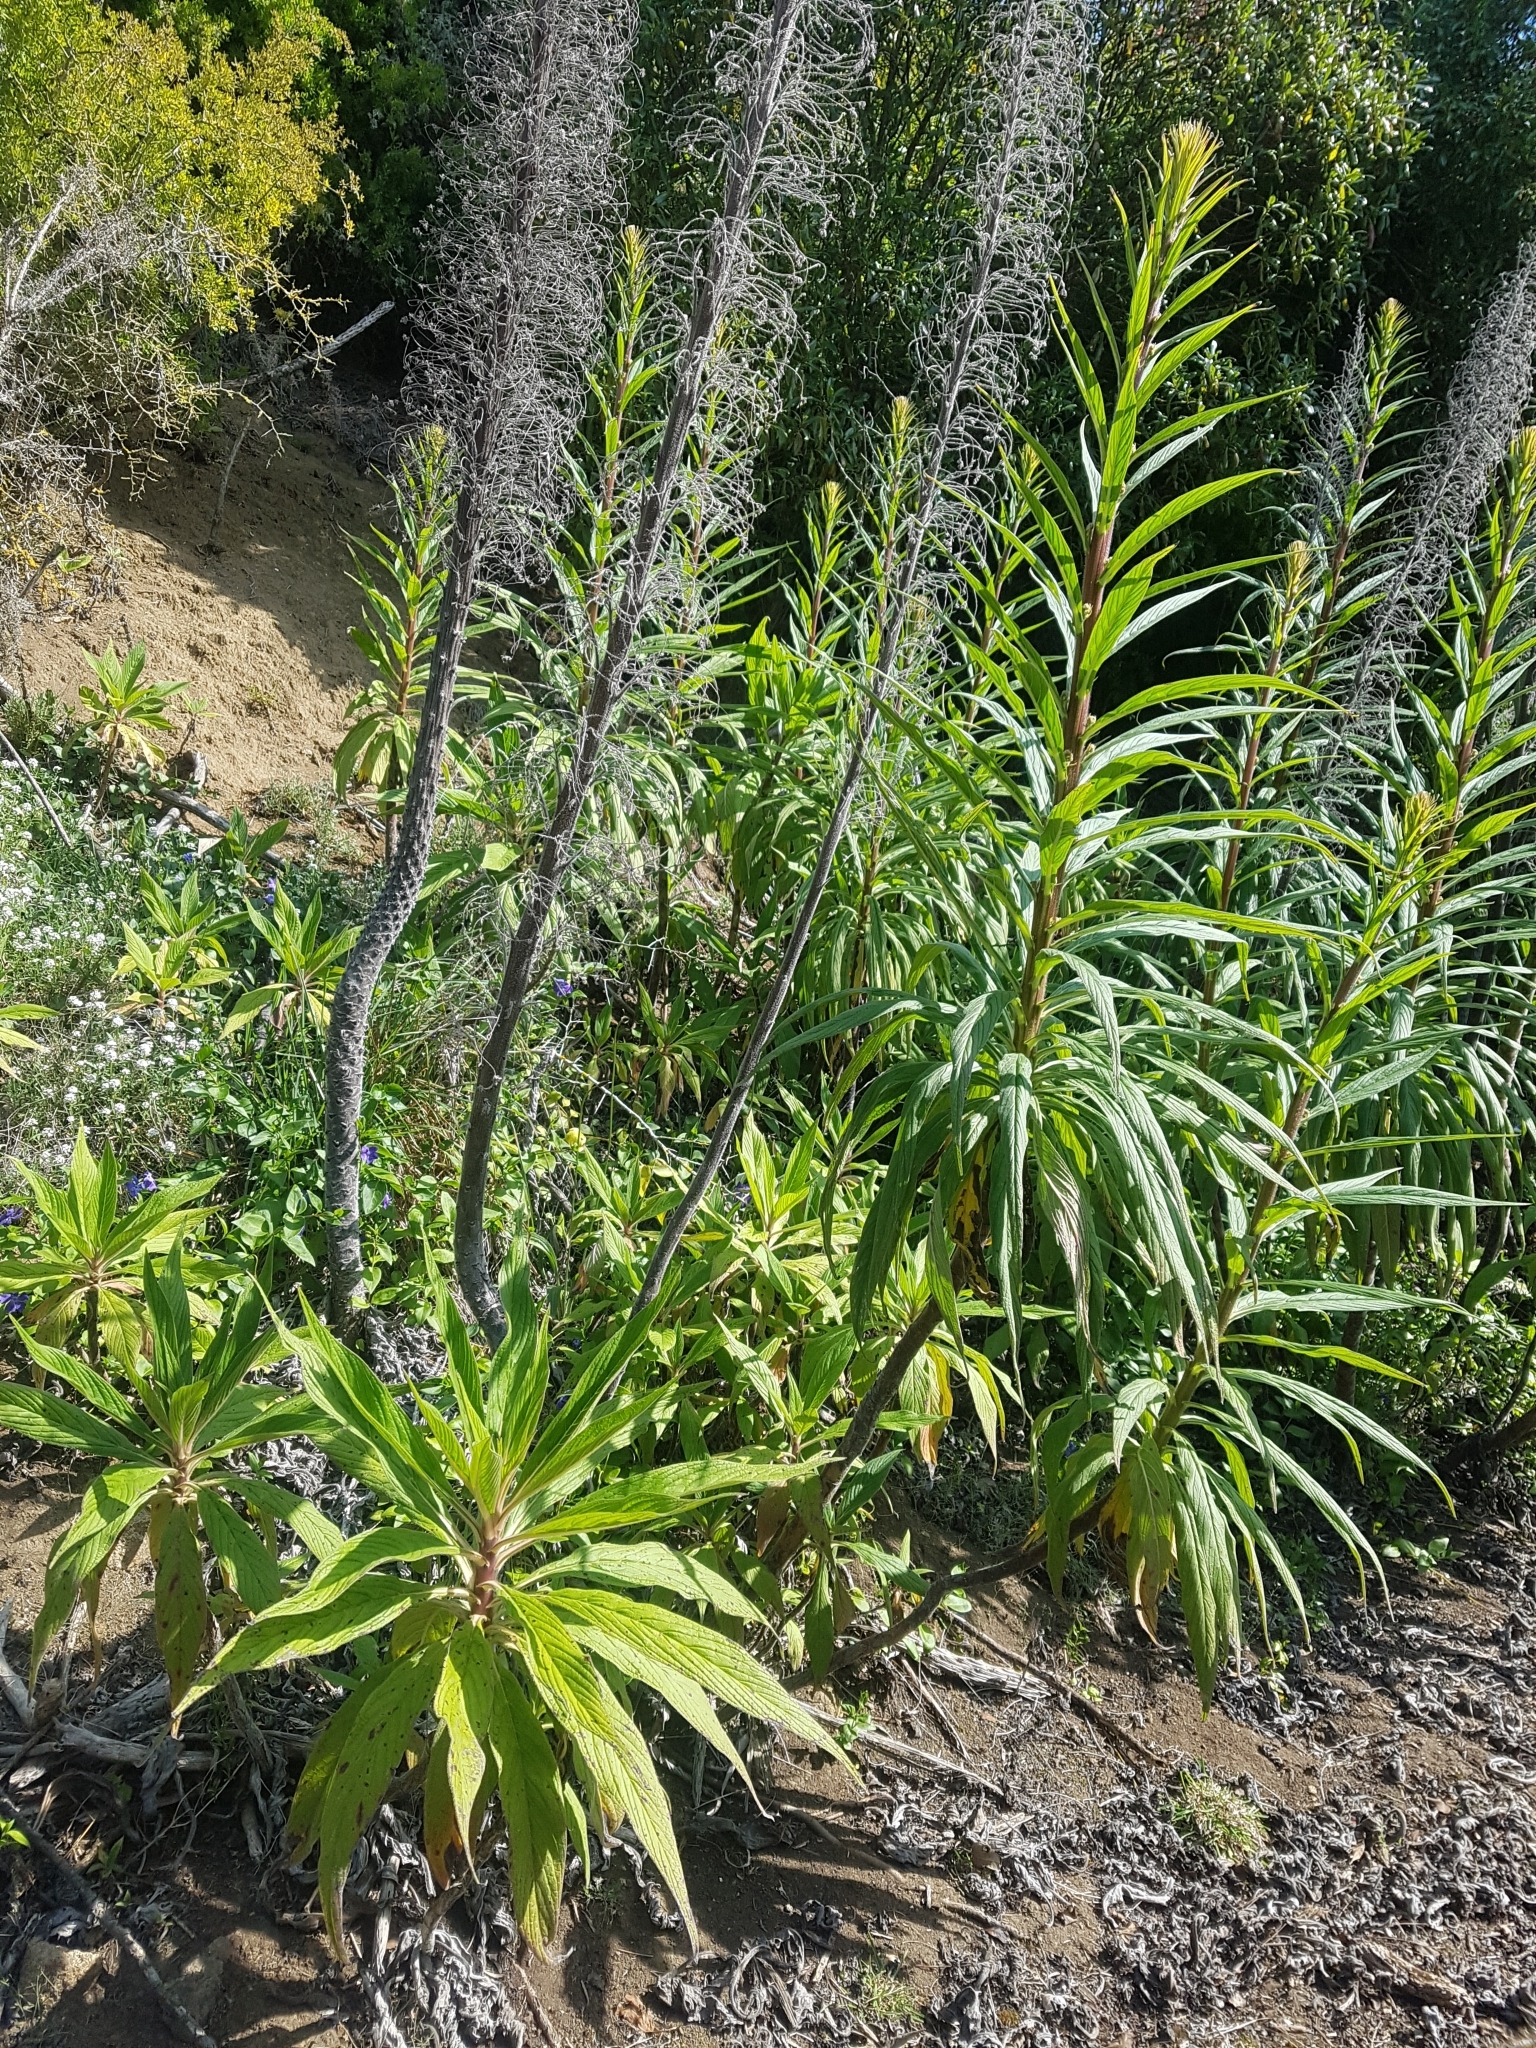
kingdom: Plantae
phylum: Tracheophyta
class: Magnoliopsida
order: Boraginales
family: Boraginaceae
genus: Echium
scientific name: Echium pininana
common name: Giant viper's-bugloss
